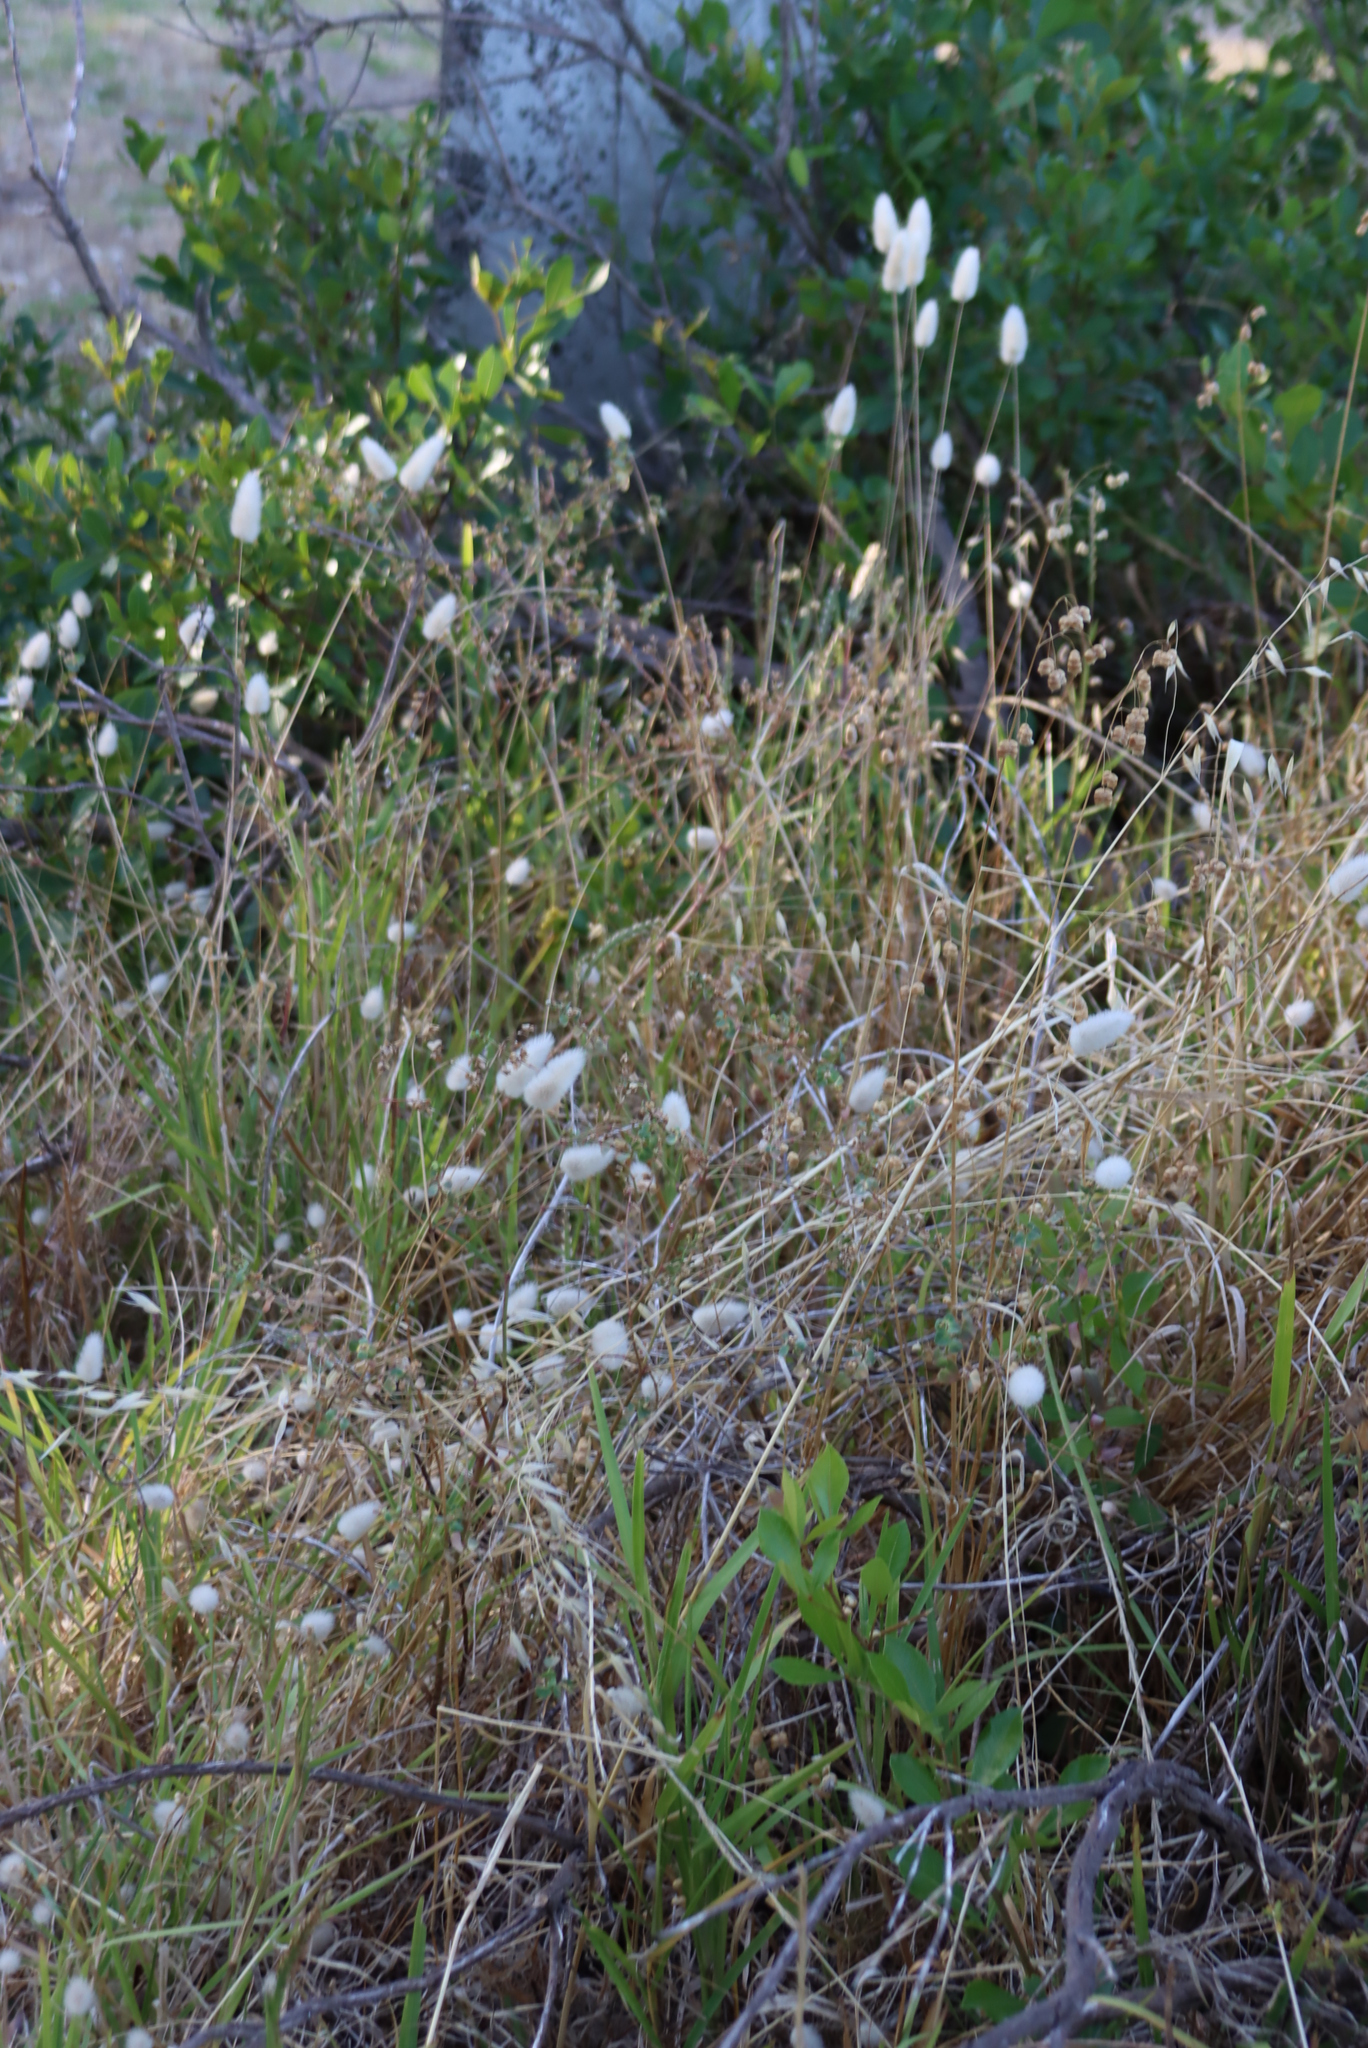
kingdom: Plantae
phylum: Tracheophyta
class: Liliopsida
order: Poales
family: Poaceae
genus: Lagurus
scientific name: Lagurus ovatus
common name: Hare's-tail
